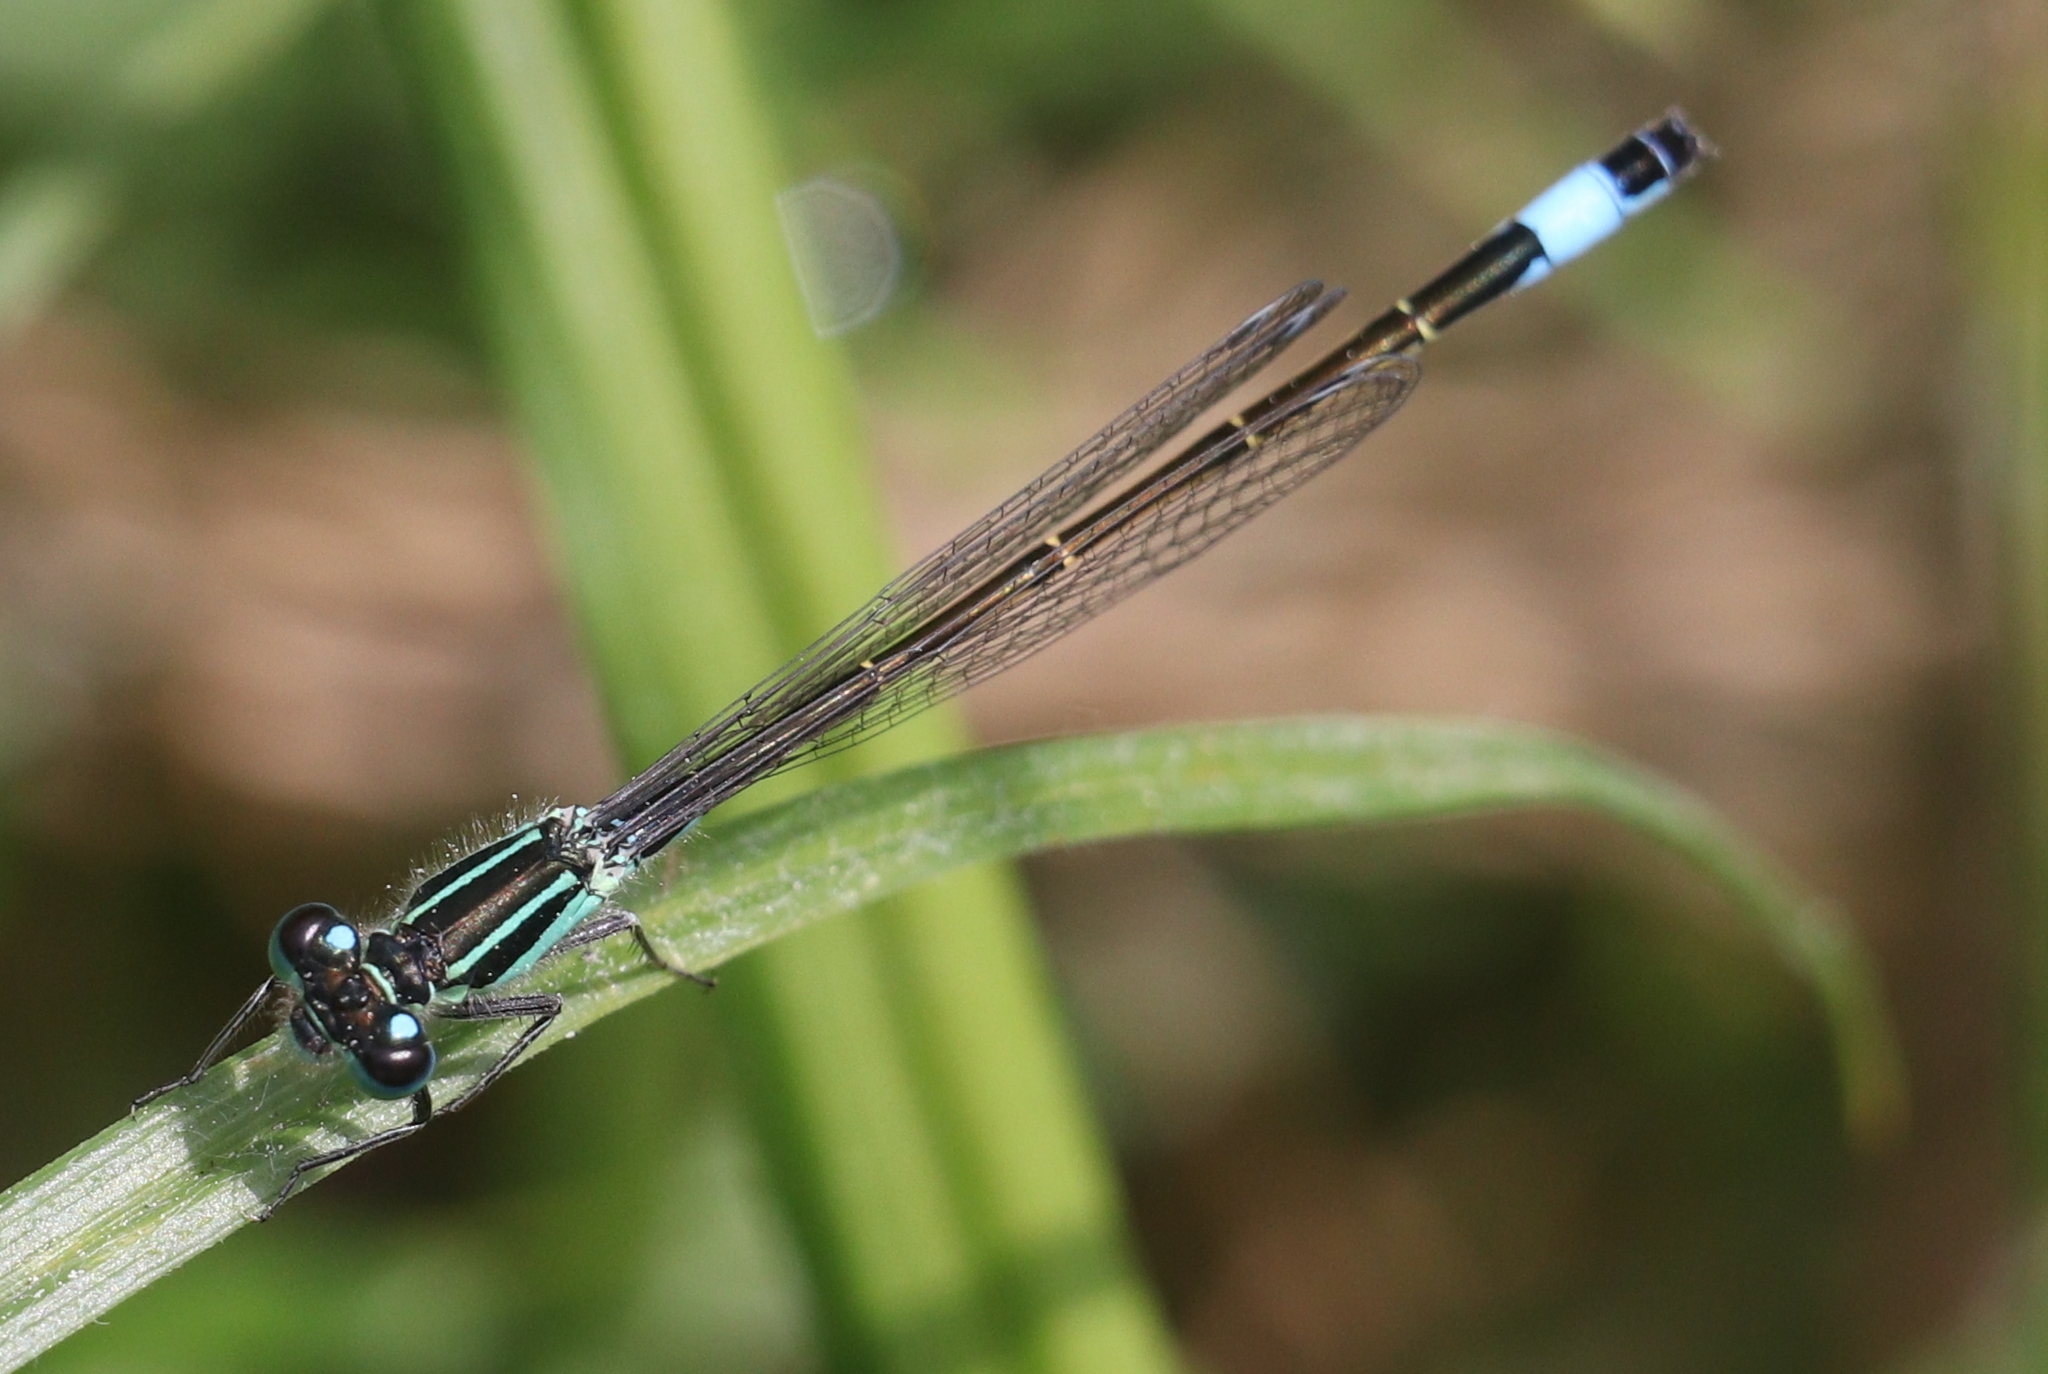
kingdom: Animalia
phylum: Arthropoda
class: Insecta
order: Odonata
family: Coenagrionidae
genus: Ischnura
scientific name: Ischnura elegans
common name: Blue-tailed damselfly
